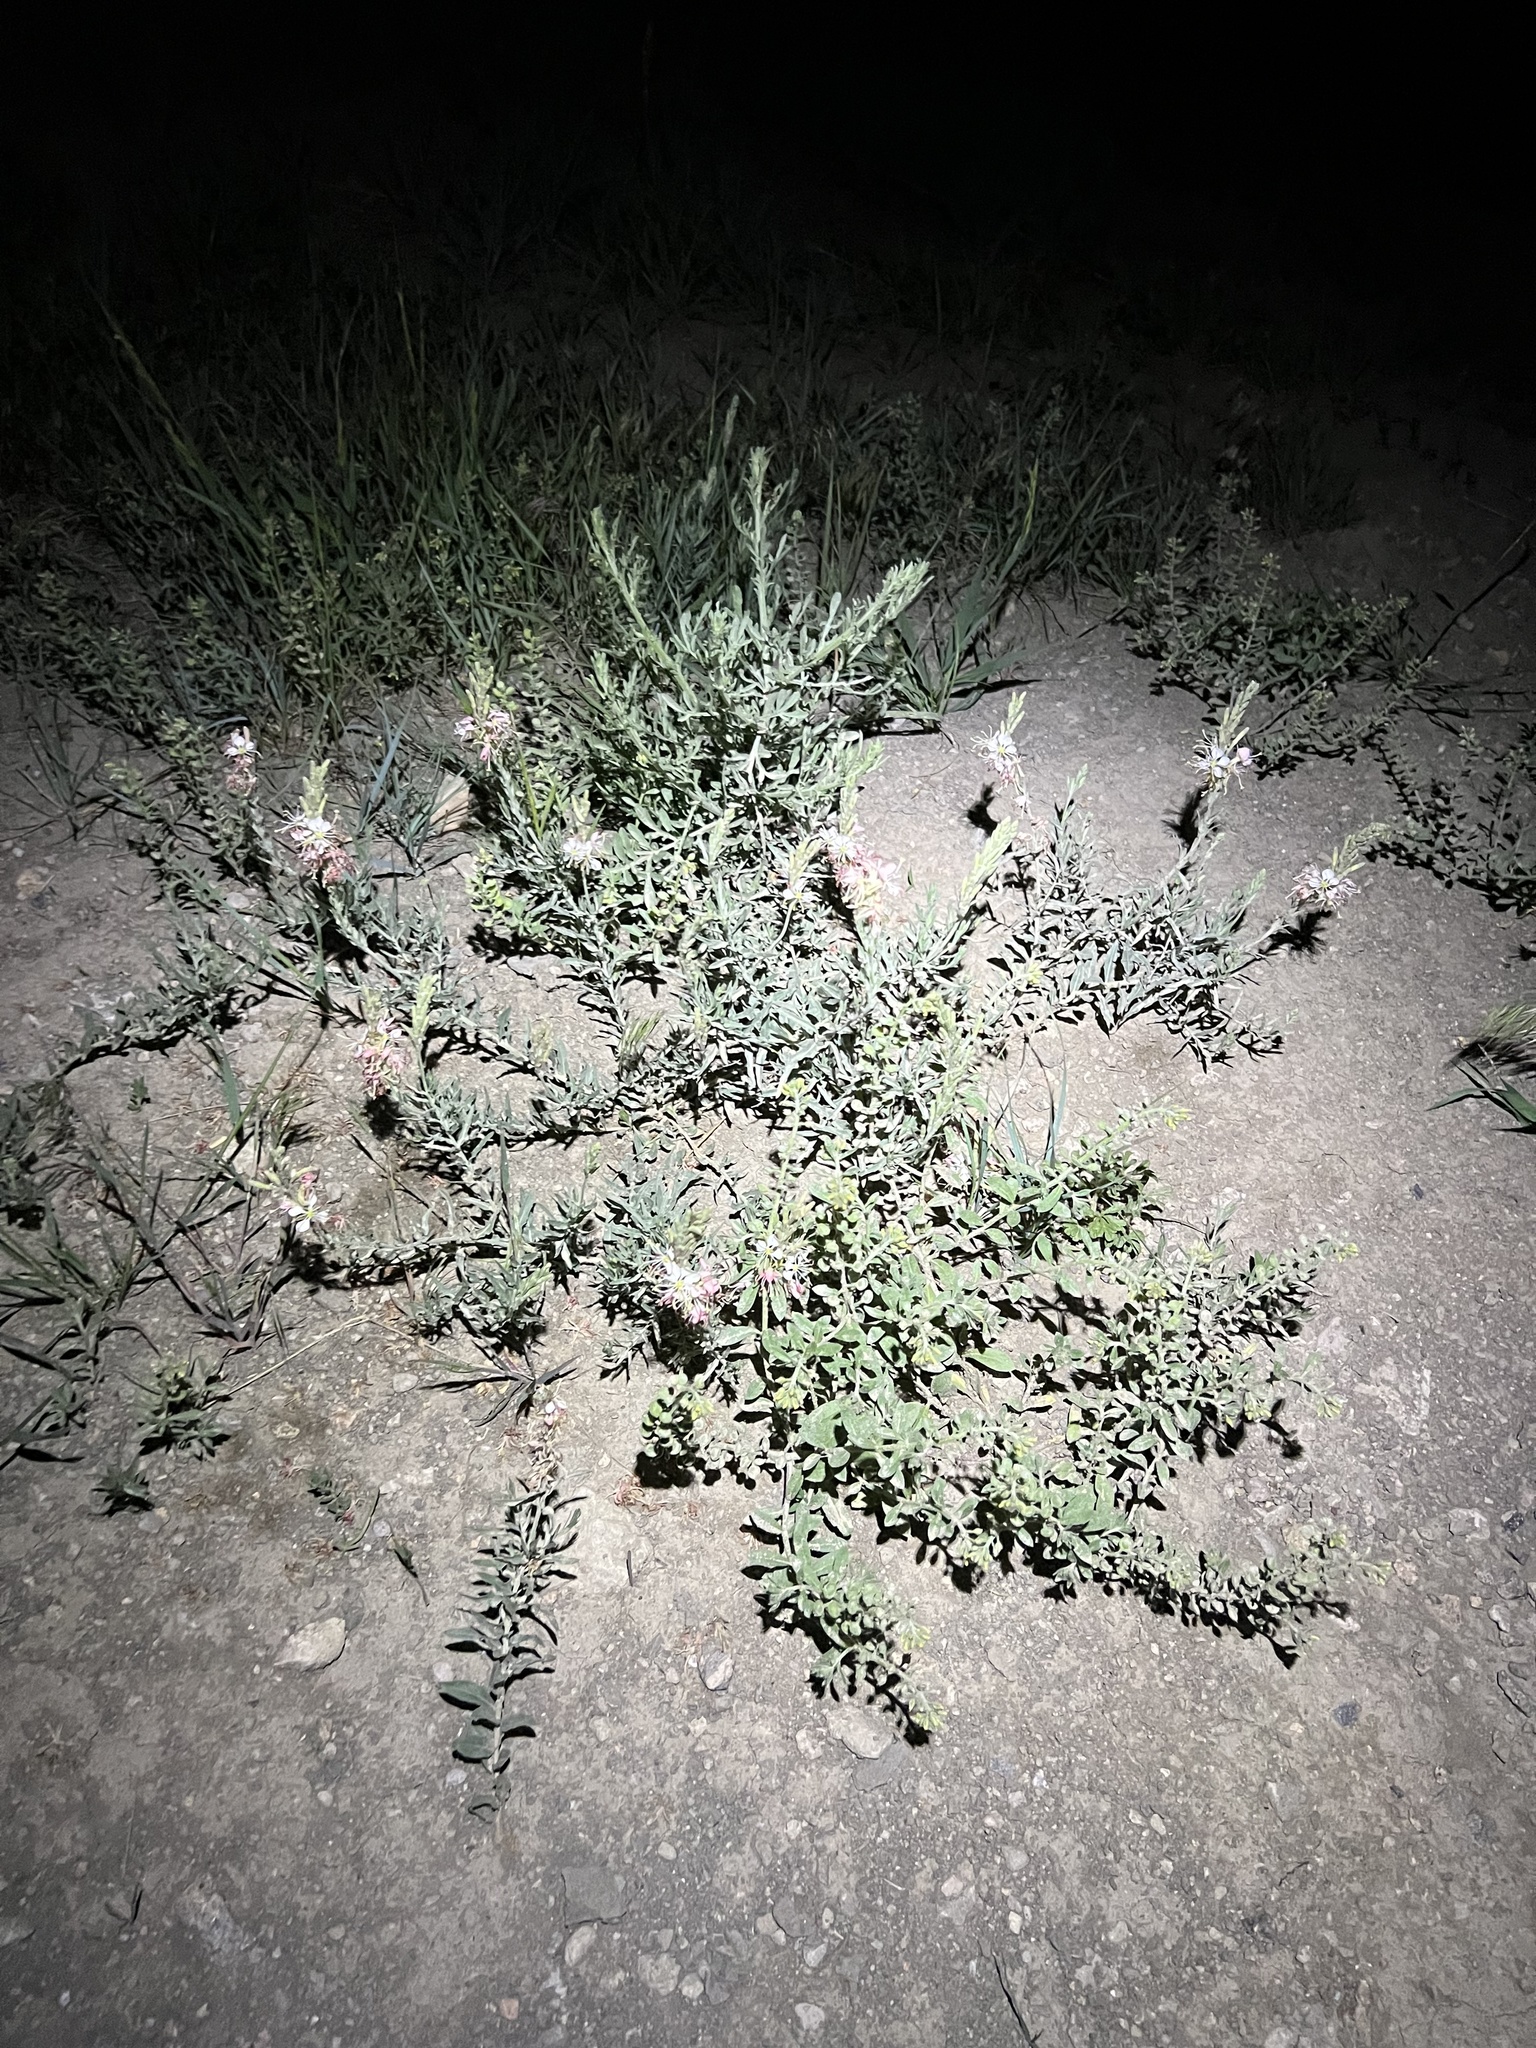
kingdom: Plantae
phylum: Tracheophyta
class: Magnoliopsida
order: Myrtales
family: Onagraceae
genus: Oenothera
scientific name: Oenothera suffrutescens
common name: Scarlet beeblossom
